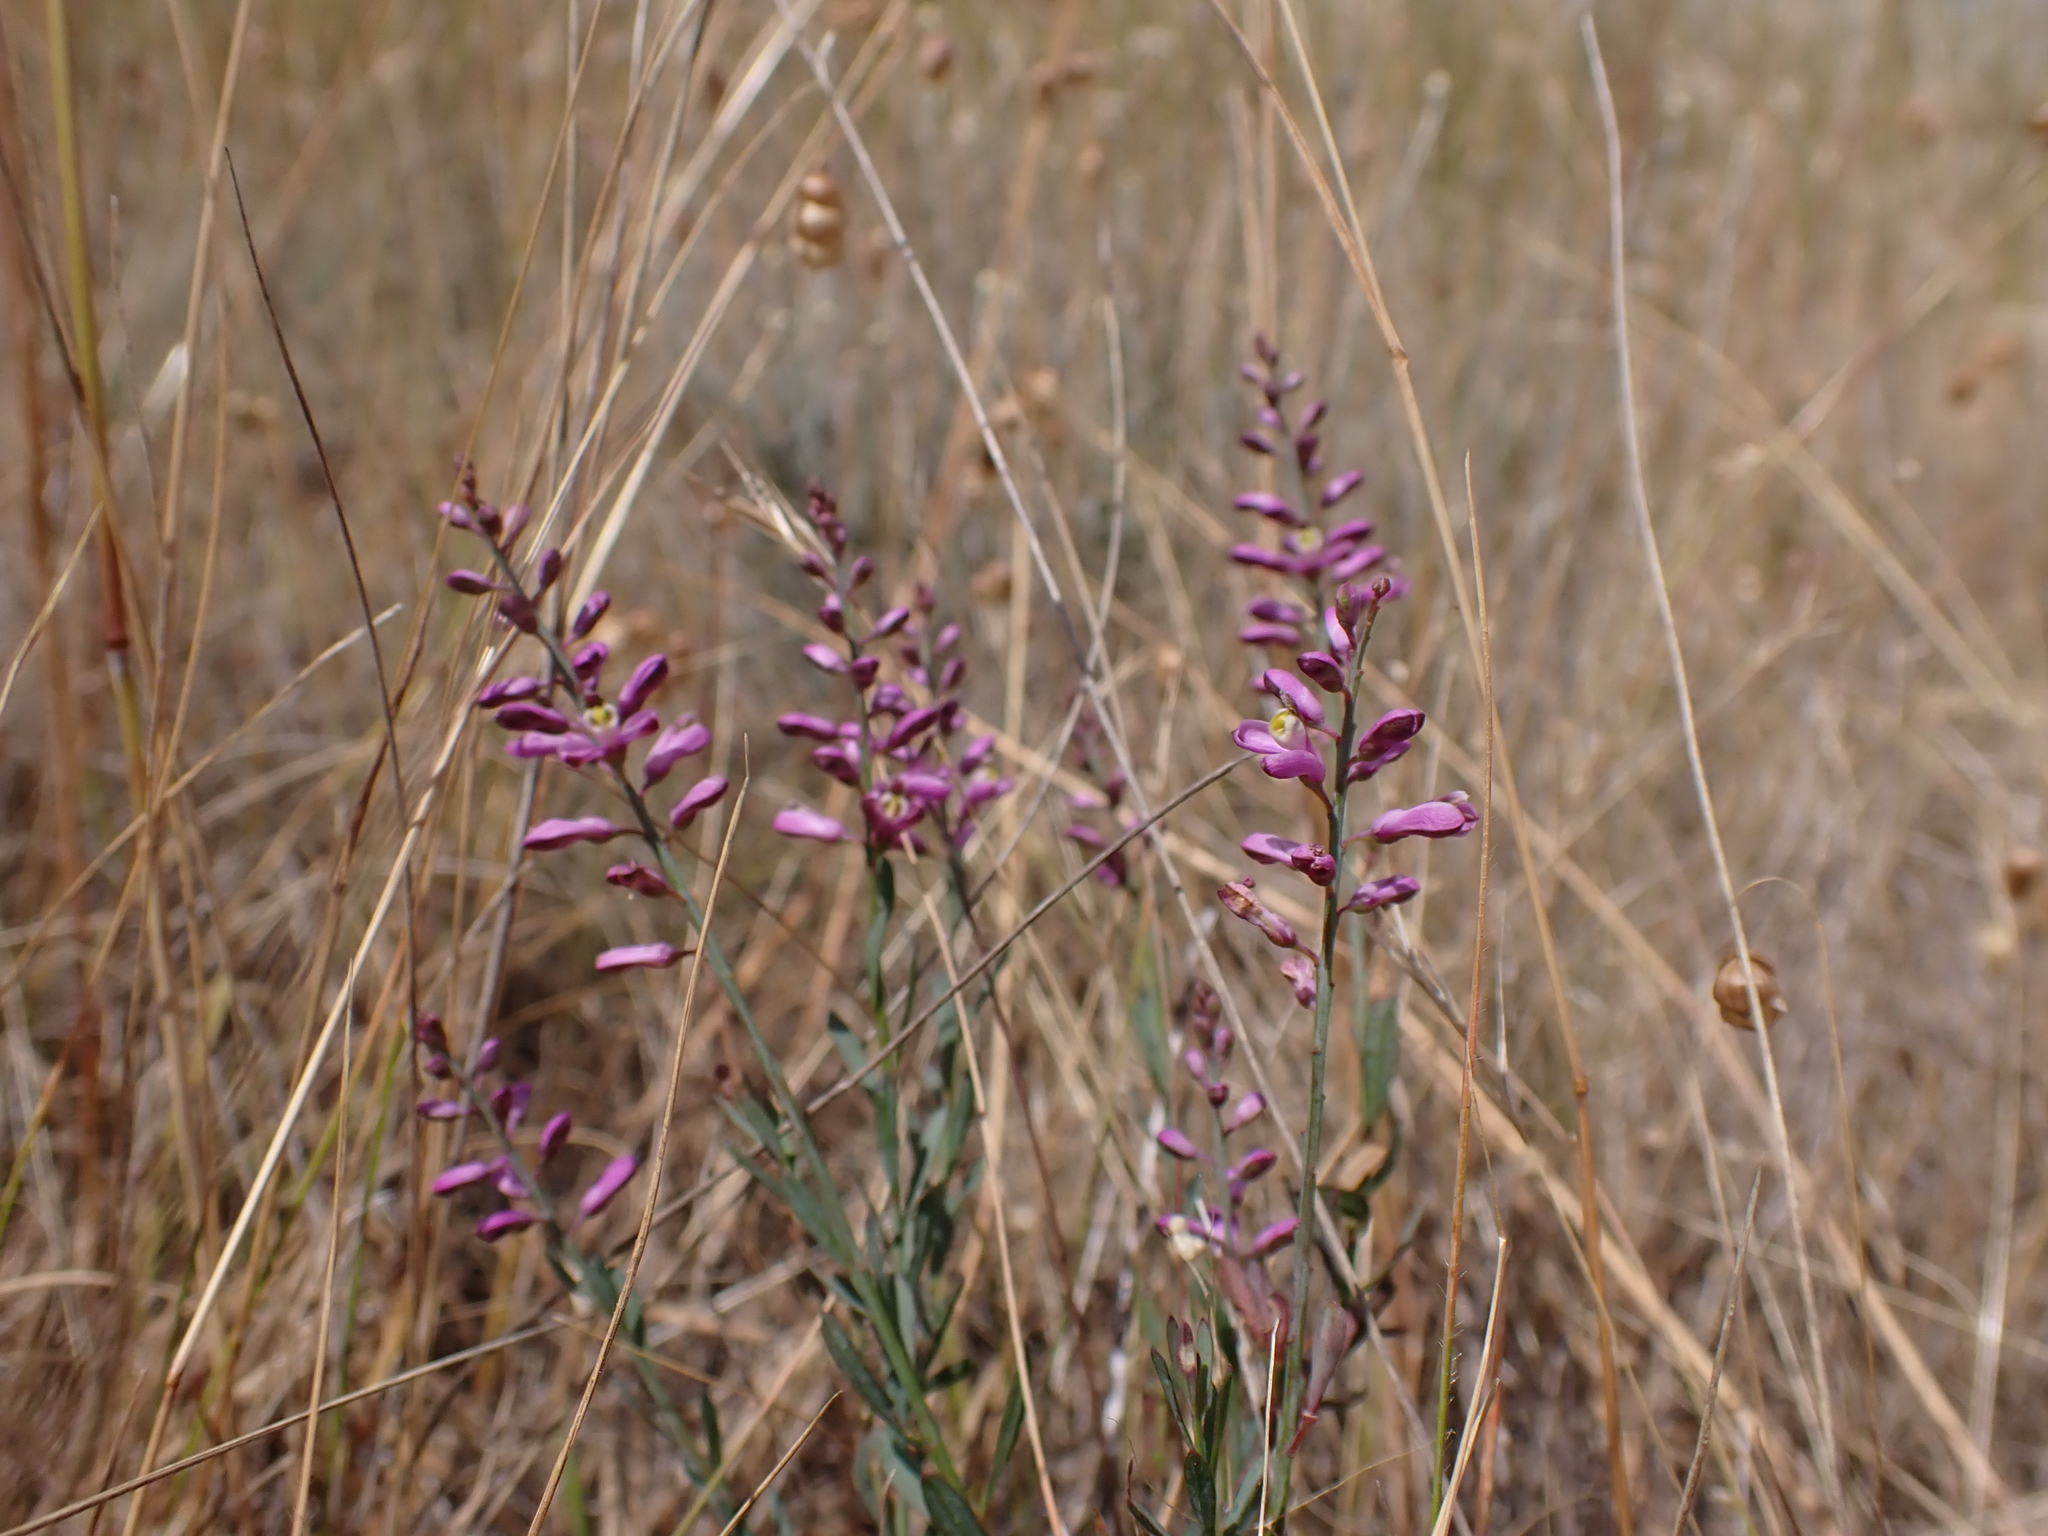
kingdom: Plantae
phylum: Tracheophyta
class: Magnoliopsida
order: Fabales
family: Polygalaceae
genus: Comesperma
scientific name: Comesperma polygaloides
